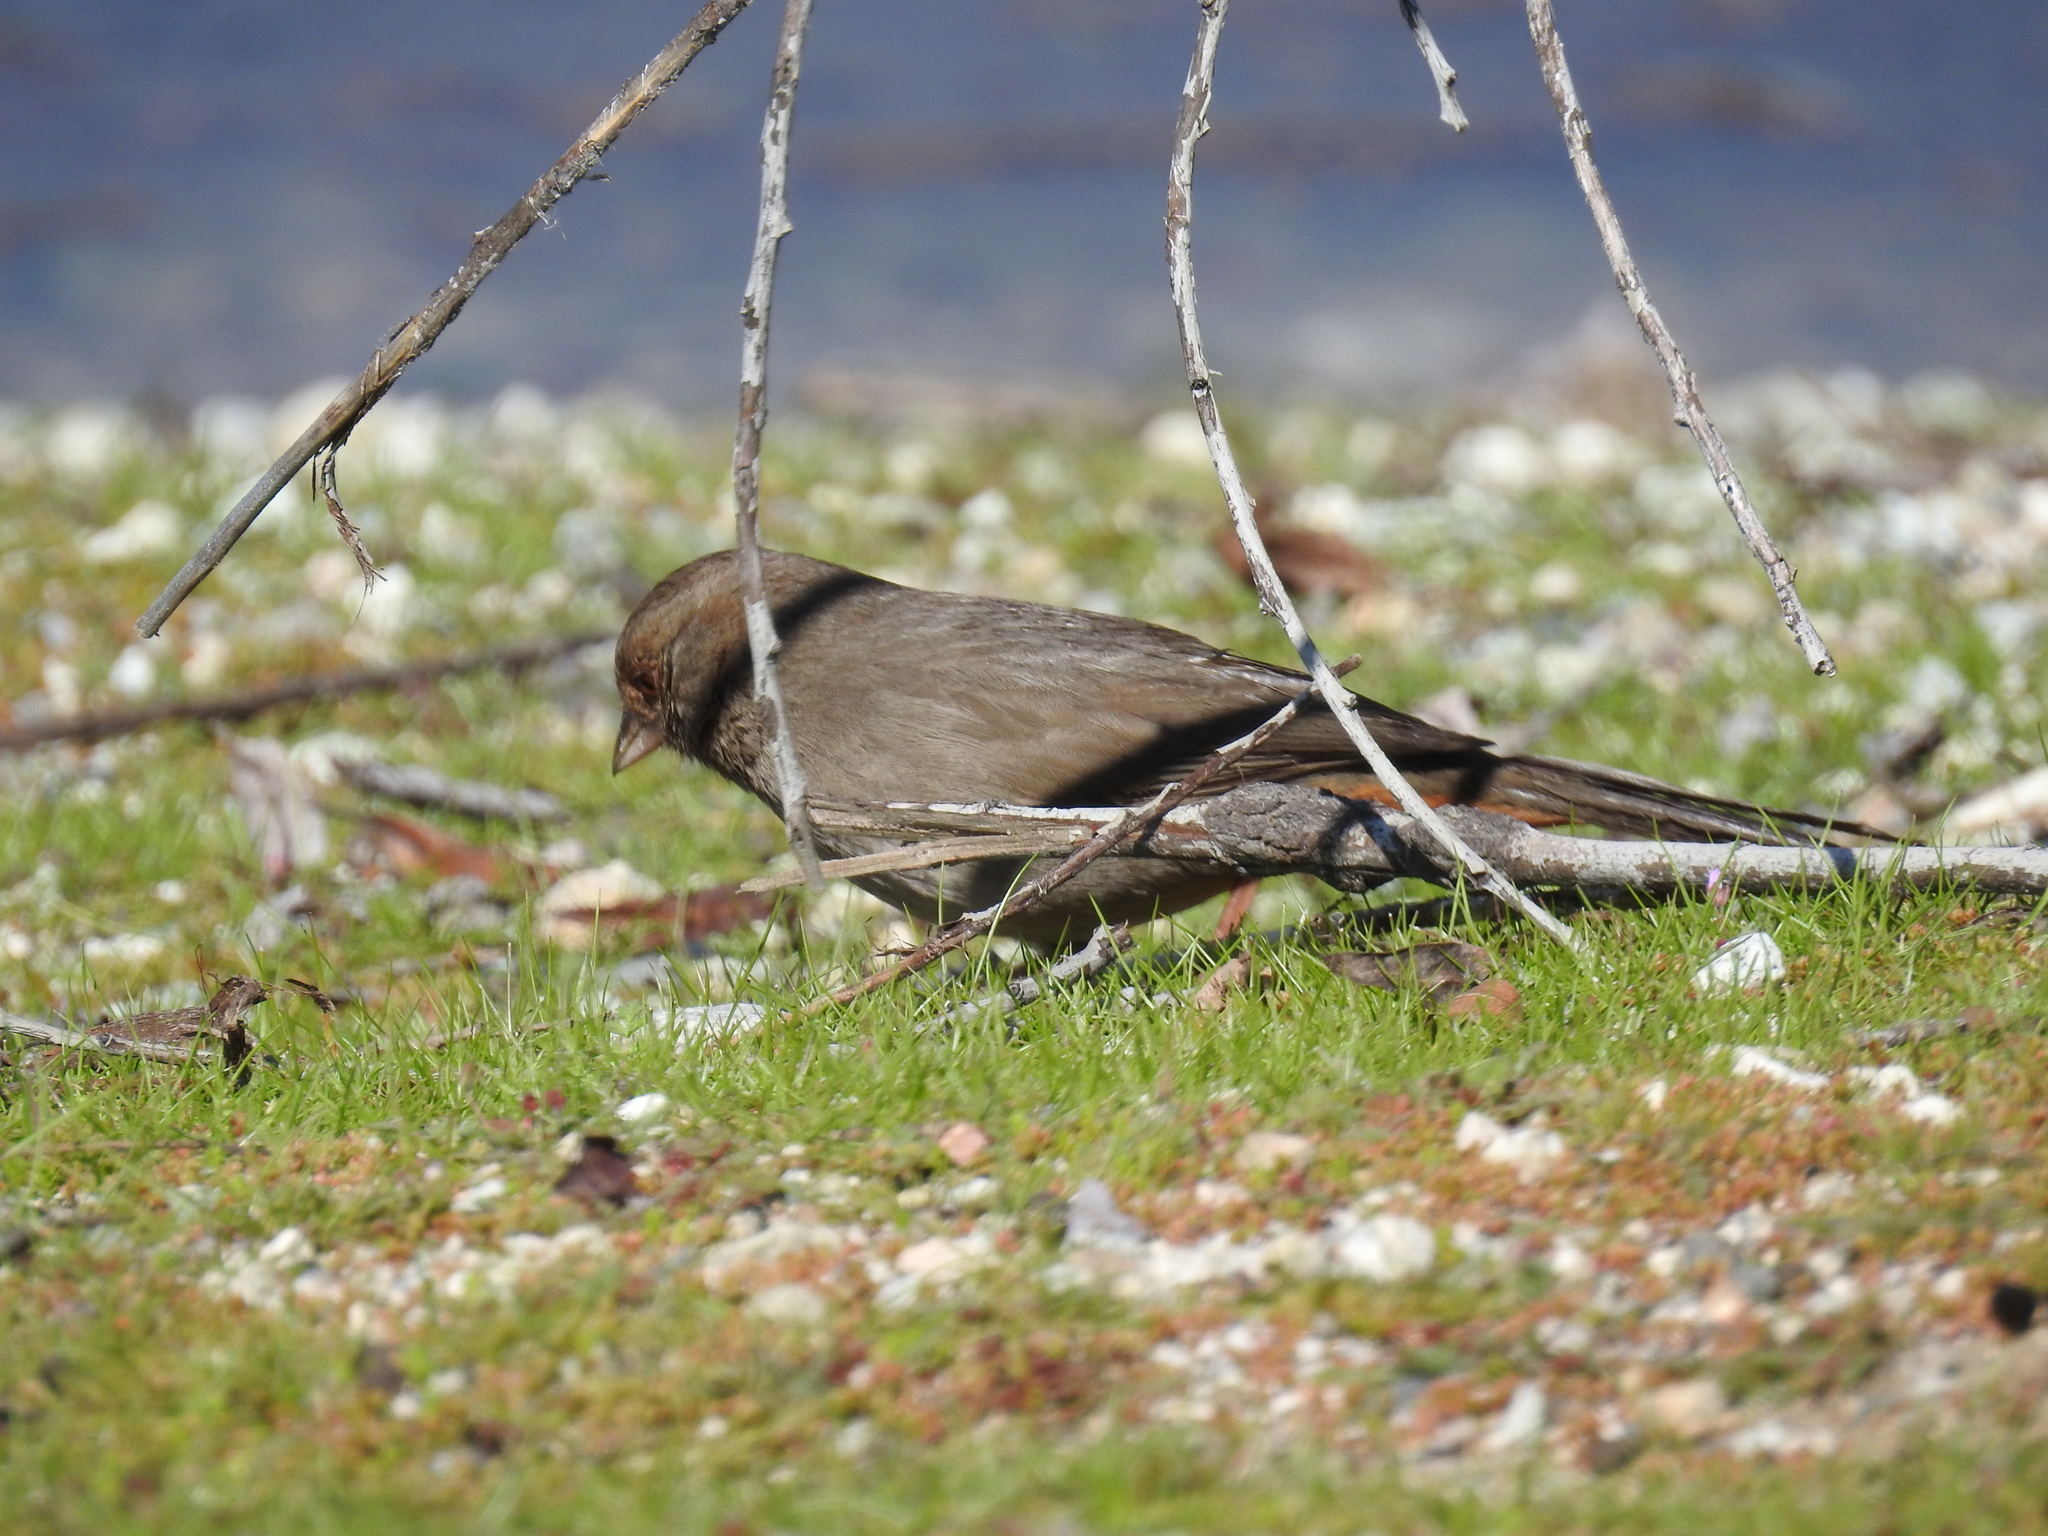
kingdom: Animalia
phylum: Chordata
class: Aves
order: Passeriformes
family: Passerellidae
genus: Melozone
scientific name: Melozone crissalis
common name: California towhee
